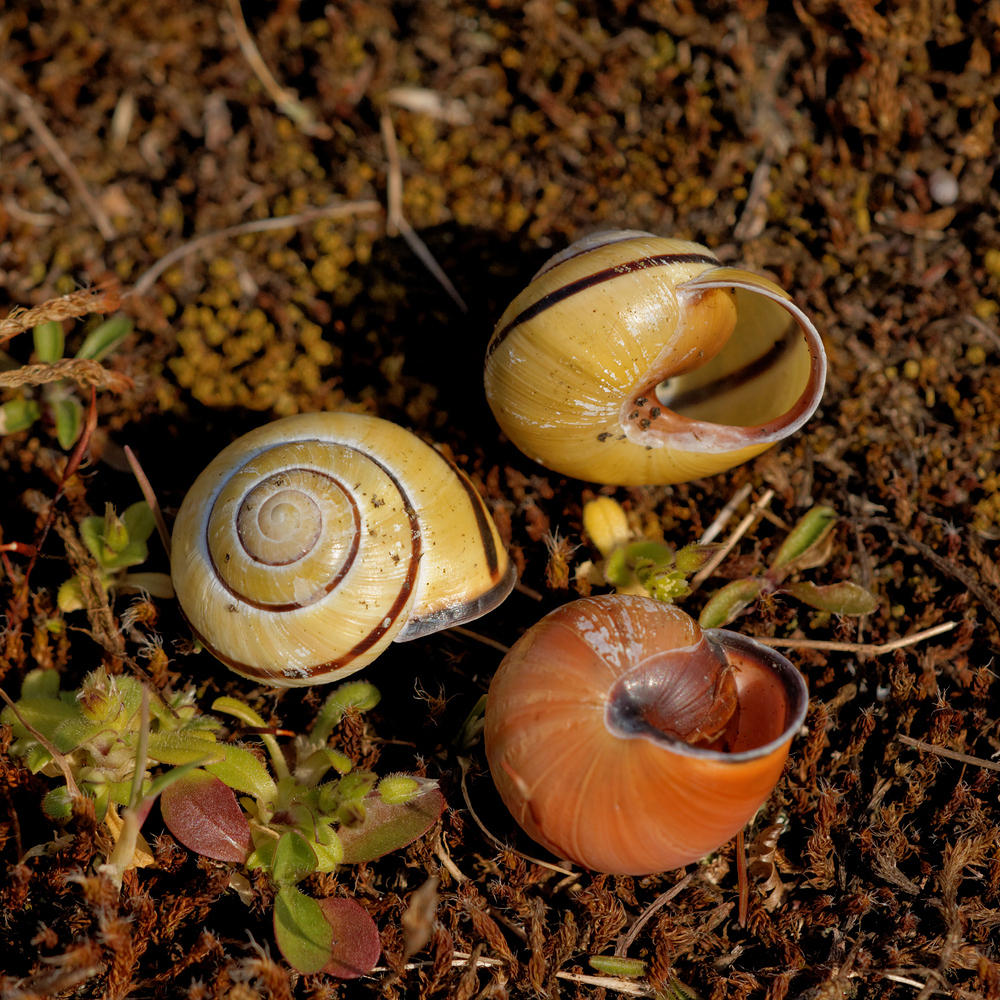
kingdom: Animalia
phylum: Mollusca
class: Gastropoda
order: Stylommatophora
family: Helicidae
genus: Cepaea
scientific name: Cepaea nemoralis
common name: Grovesnail
